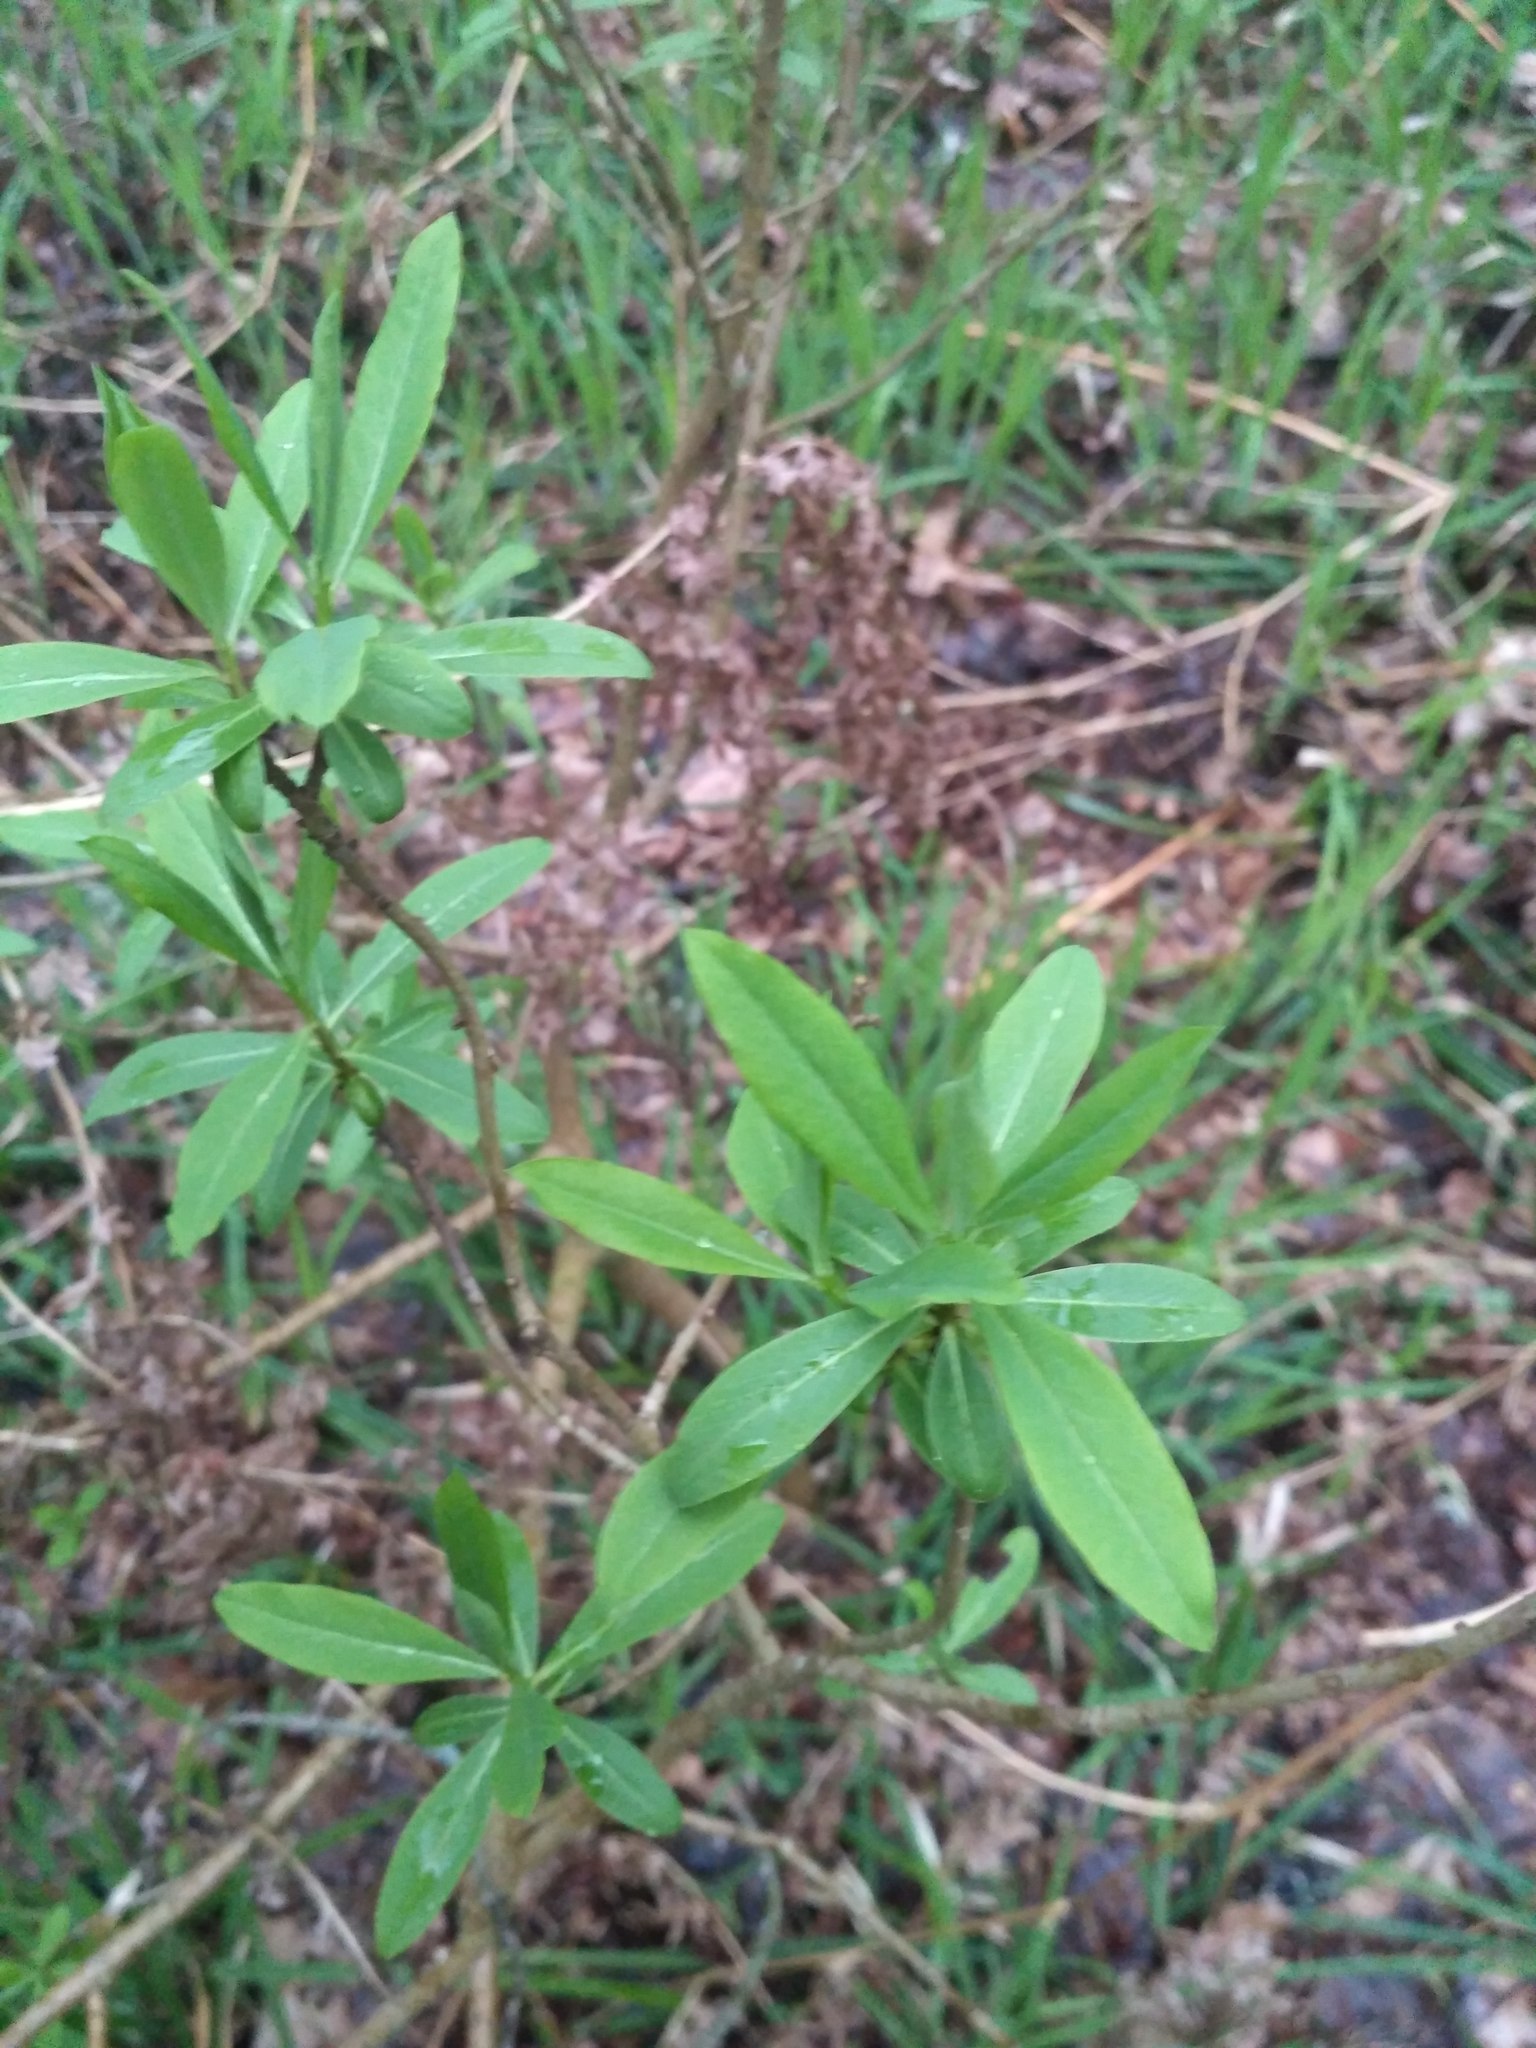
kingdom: Plantae
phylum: Tracheophyta
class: Magnoliopsida
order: Malvales
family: Thymelaeaceae
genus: Daphne
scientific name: Daphne mezereum
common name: Mezereon
